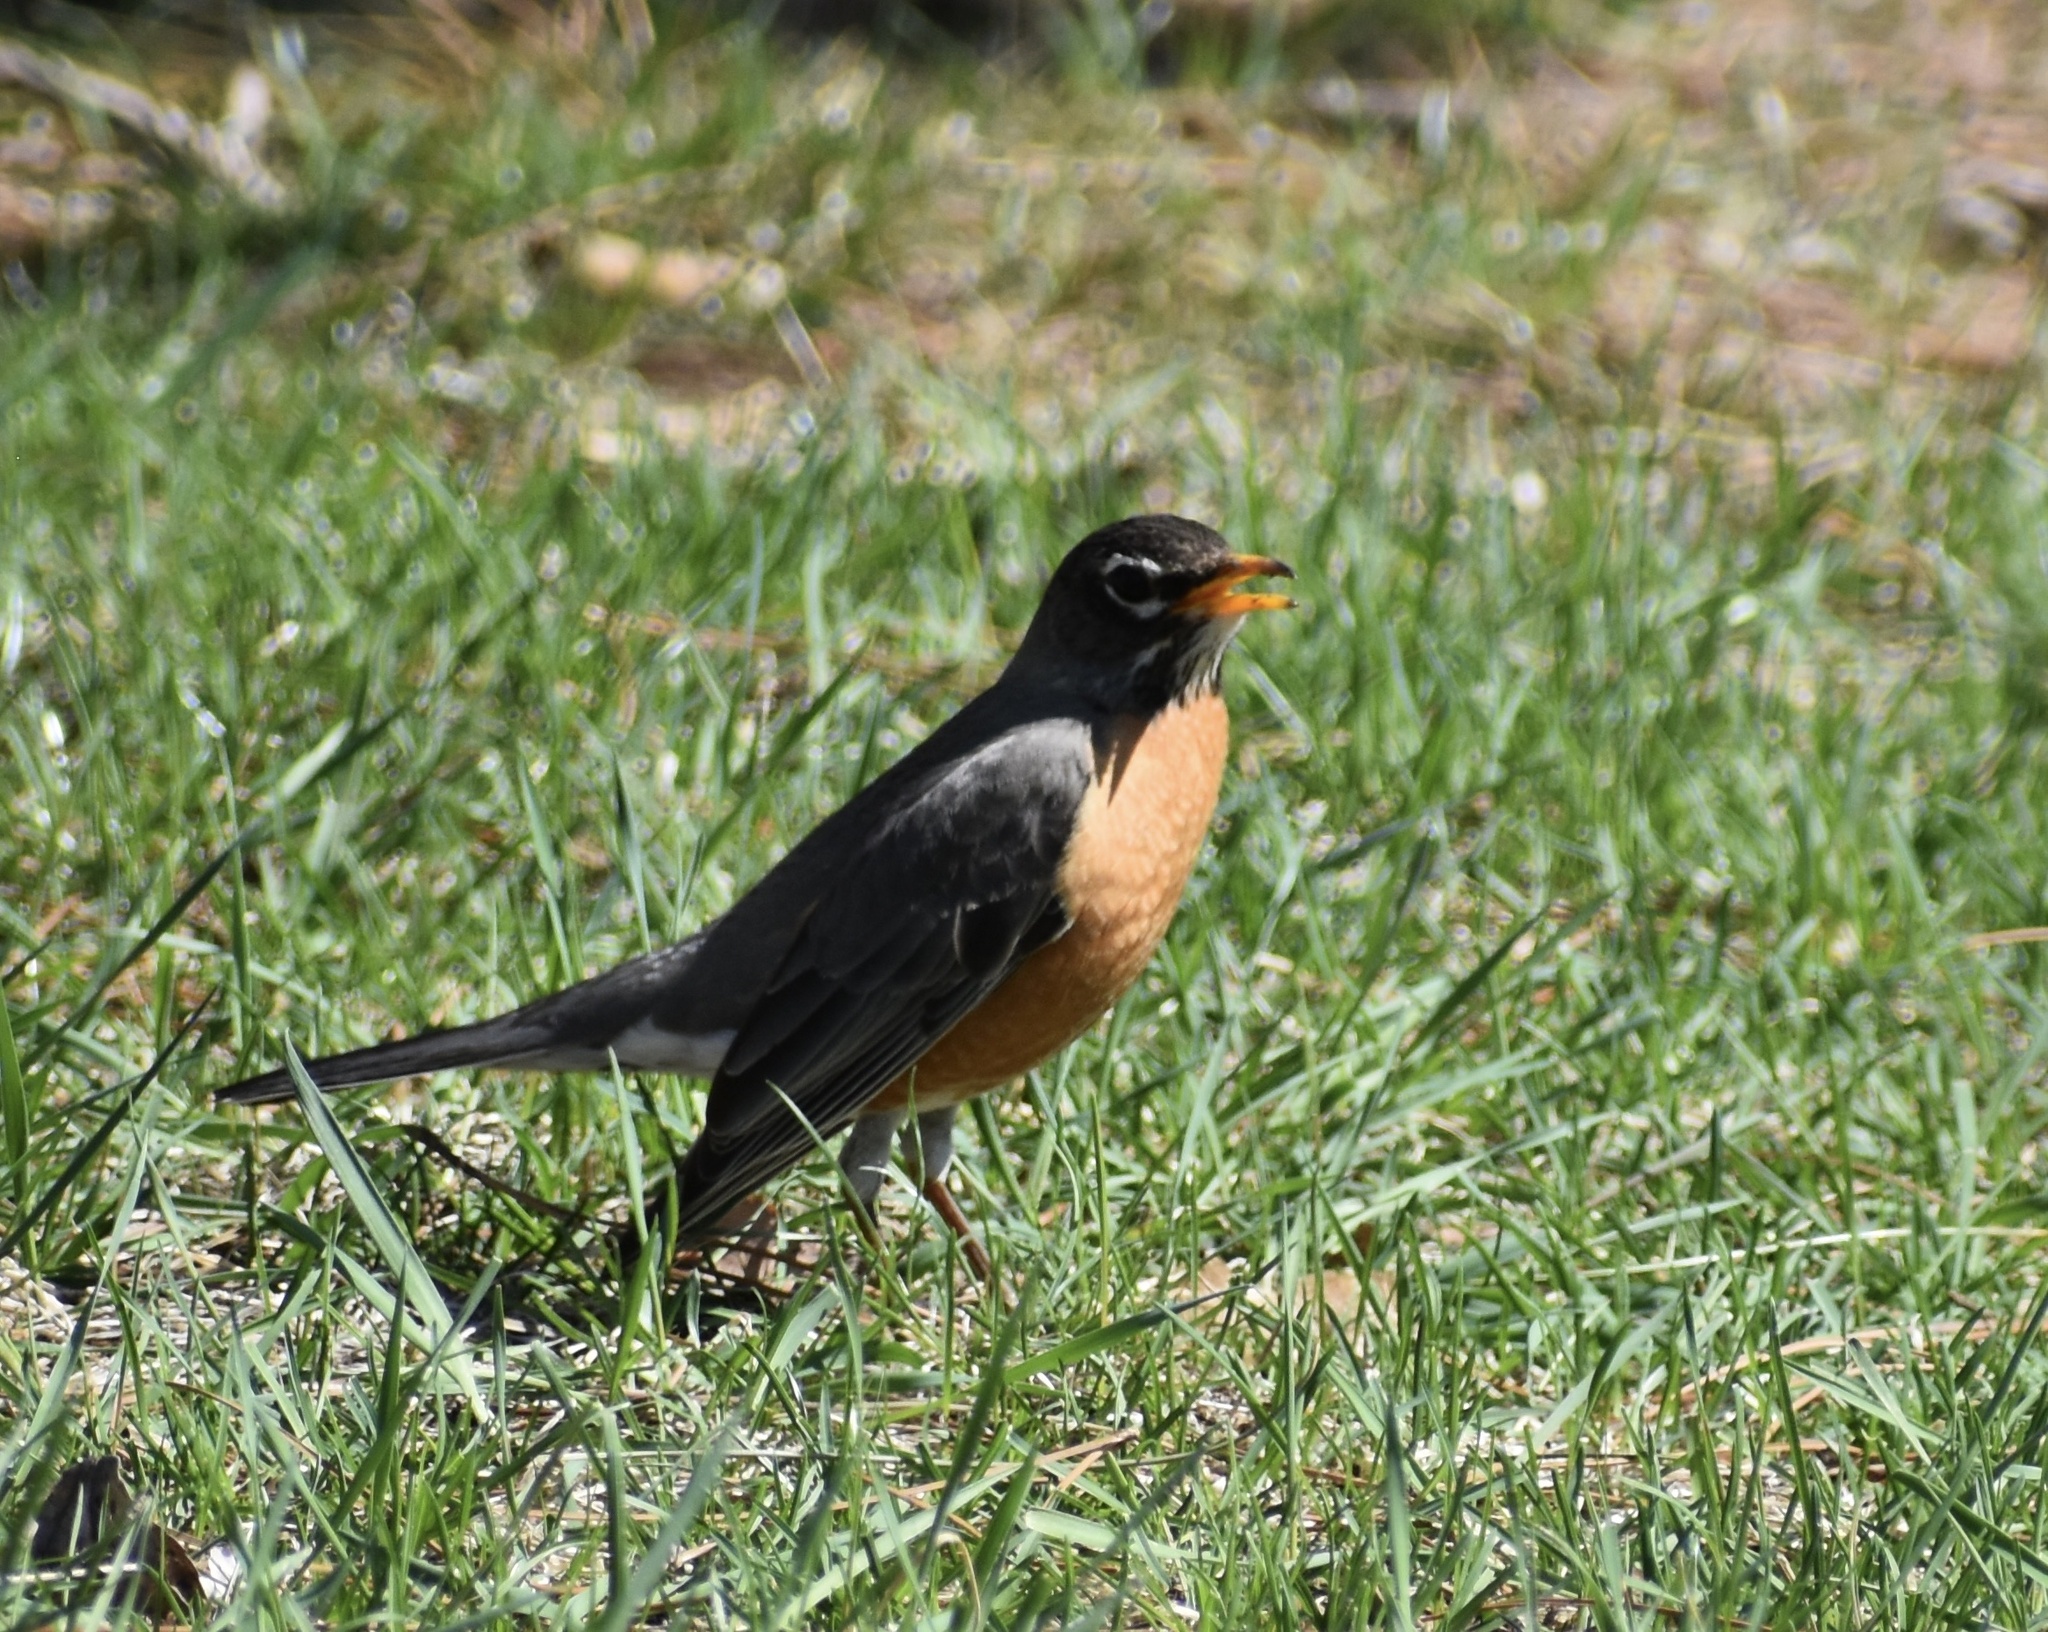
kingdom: Animalia
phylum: Chordata
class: Aves
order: Passeriformes
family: Turdidae
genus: Turdus
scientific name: Turdus migratorius
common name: American robin
